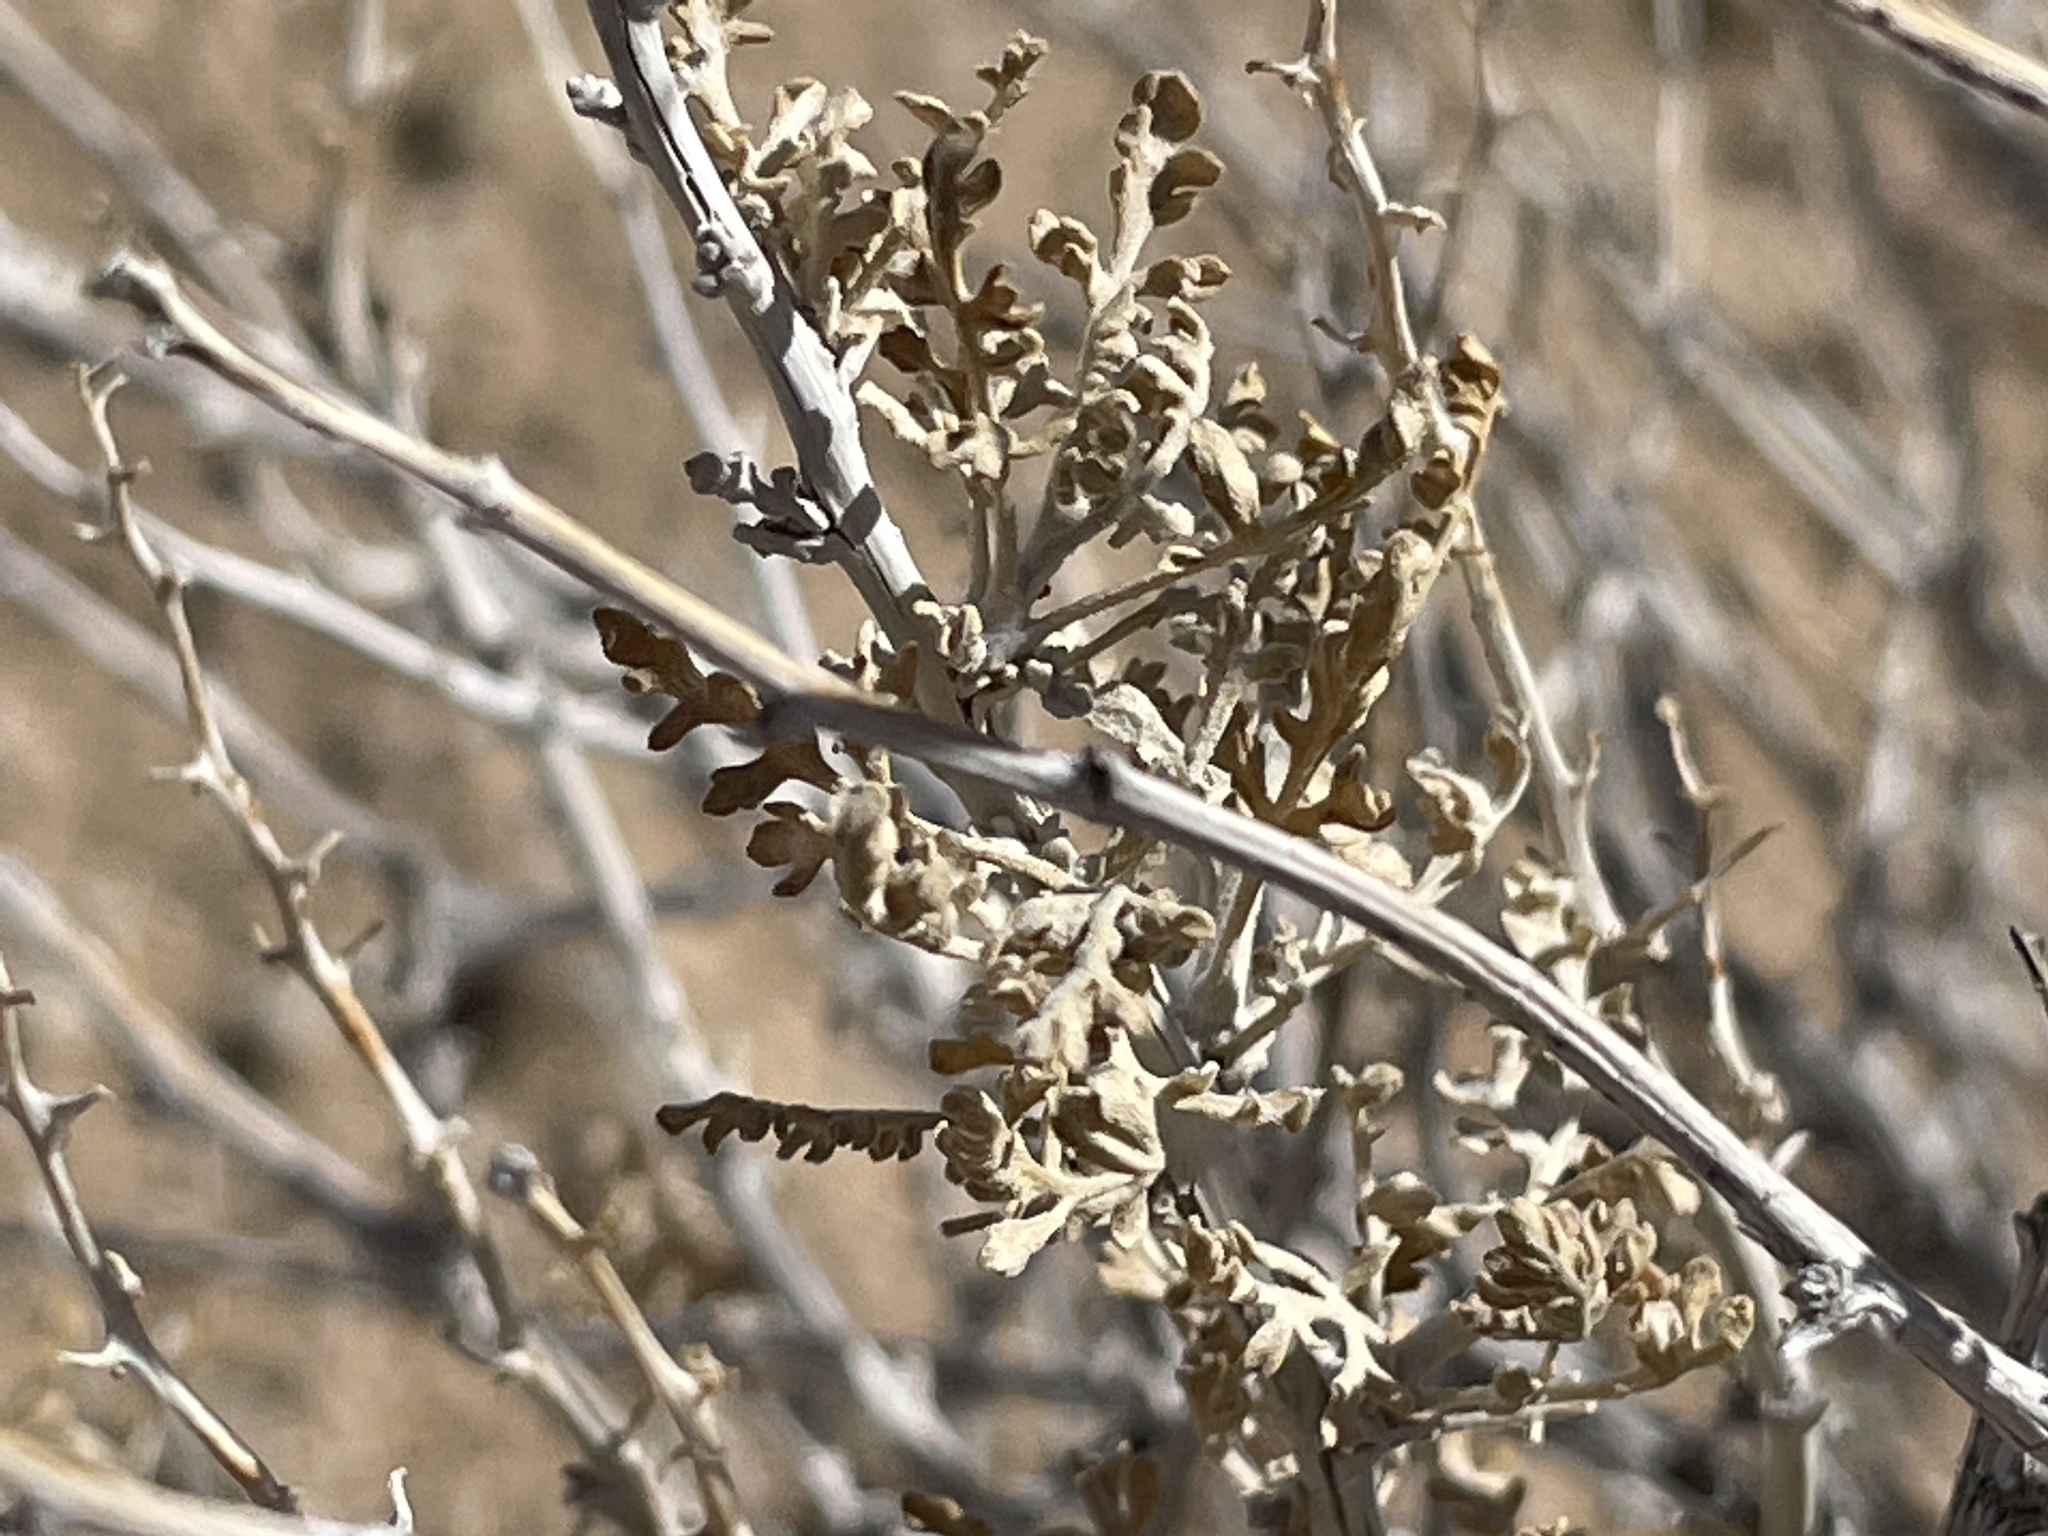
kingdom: Plantae
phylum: Tracheophyta
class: Magnoliopsida
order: Asterales
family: Asteraceae
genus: Ambrosia
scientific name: Ambrosia dumosa
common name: Bur-sage
